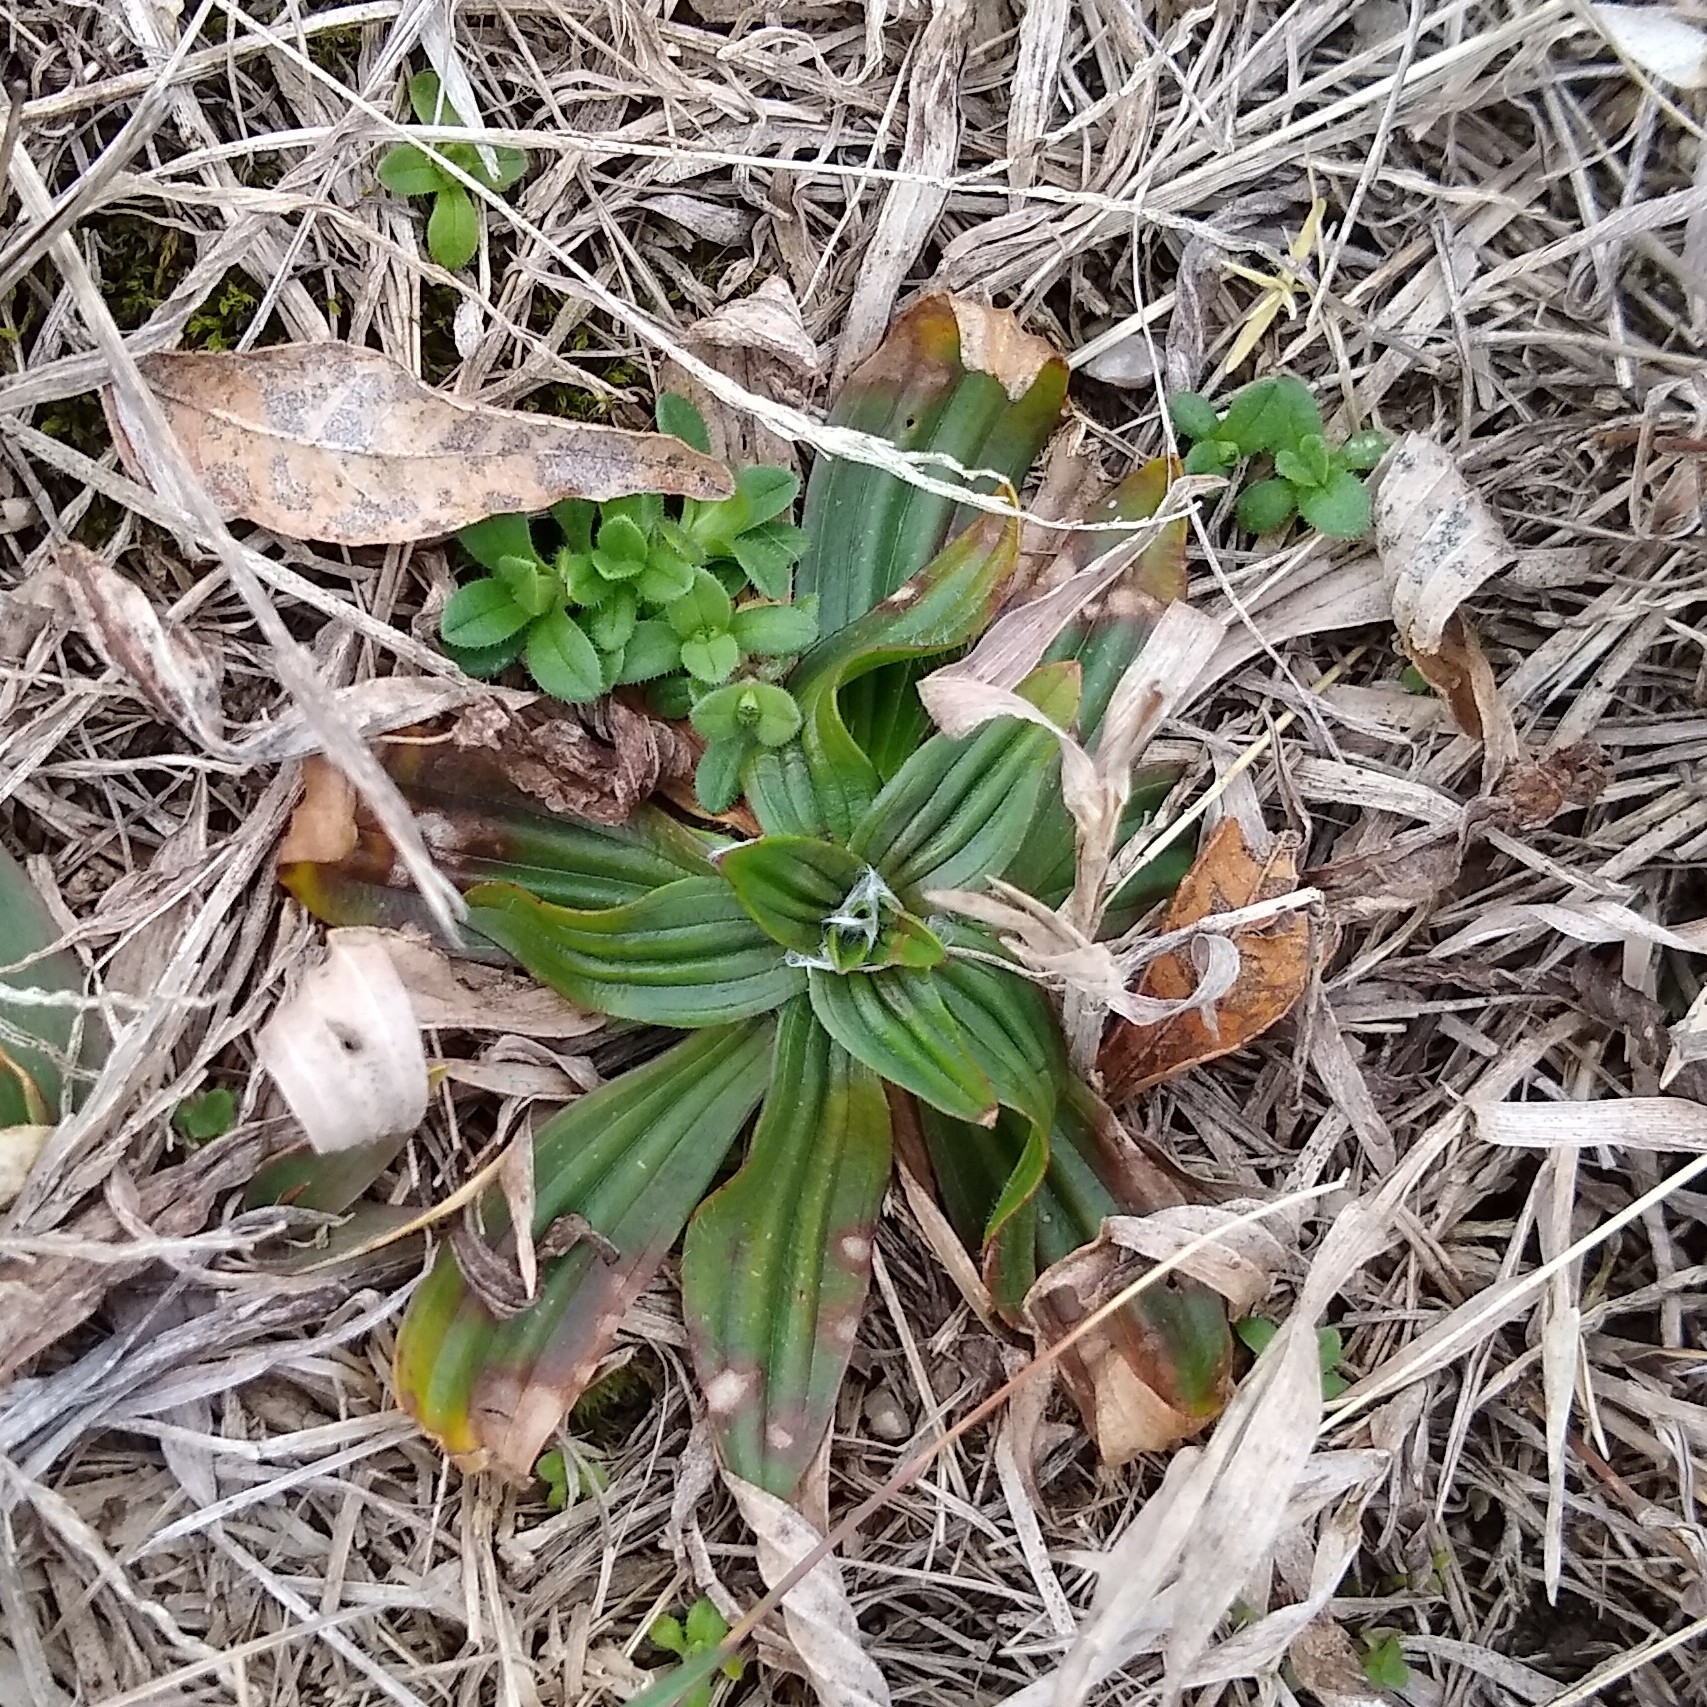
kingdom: Plantae
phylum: Tracheophyta
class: Magnoliopsida
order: Lamiales
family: Plantaginaceae
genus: Plantago
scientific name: Plantago lanceolata
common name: Ribwort plantain
